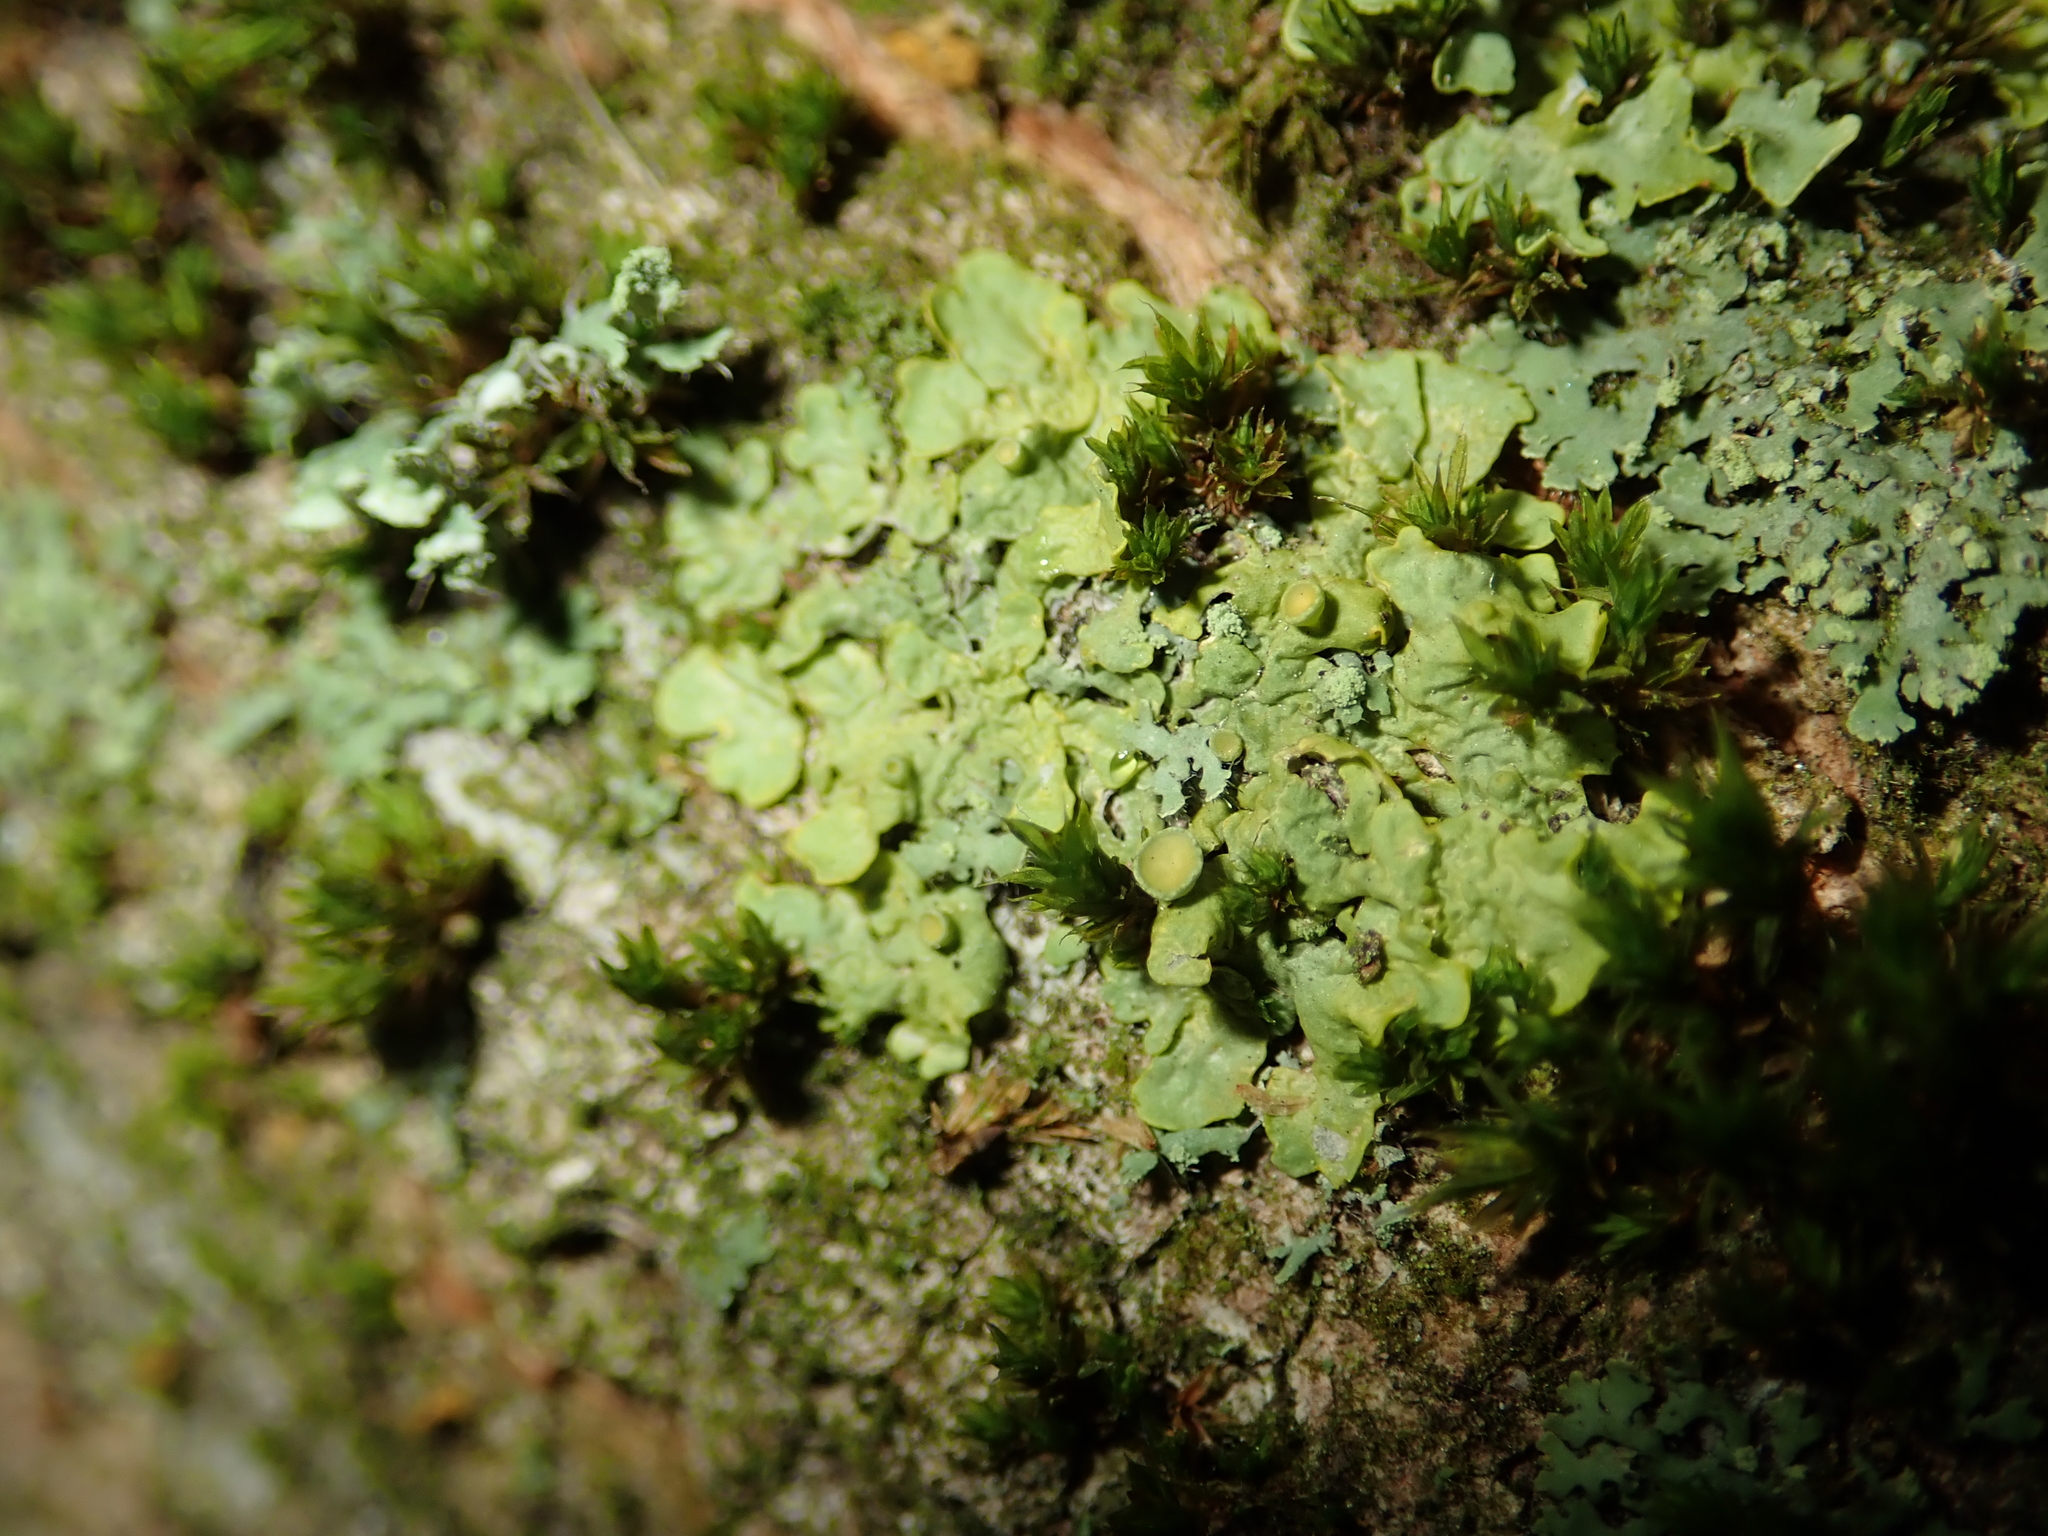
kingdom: Fungi
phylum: Ascomycota
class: Lecanoromycetes
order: Teloschistales
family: Teloschistaceae
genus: Xanthoria
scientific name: Xanthoria parietina
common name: Common orange lichen
